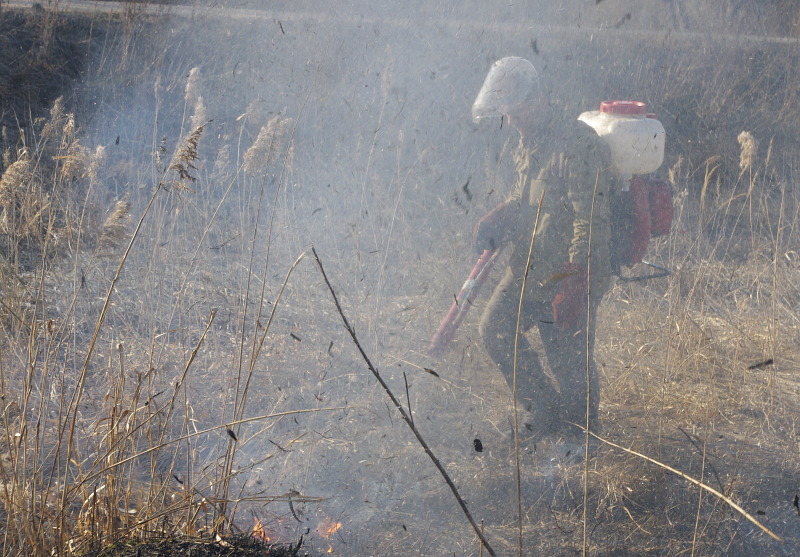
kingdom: Plantae
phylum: Tracheophyta
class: Liliopsida
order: Poales
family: Poaceae
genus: Phragmites
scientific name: Phragmites australis
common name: Common reed
